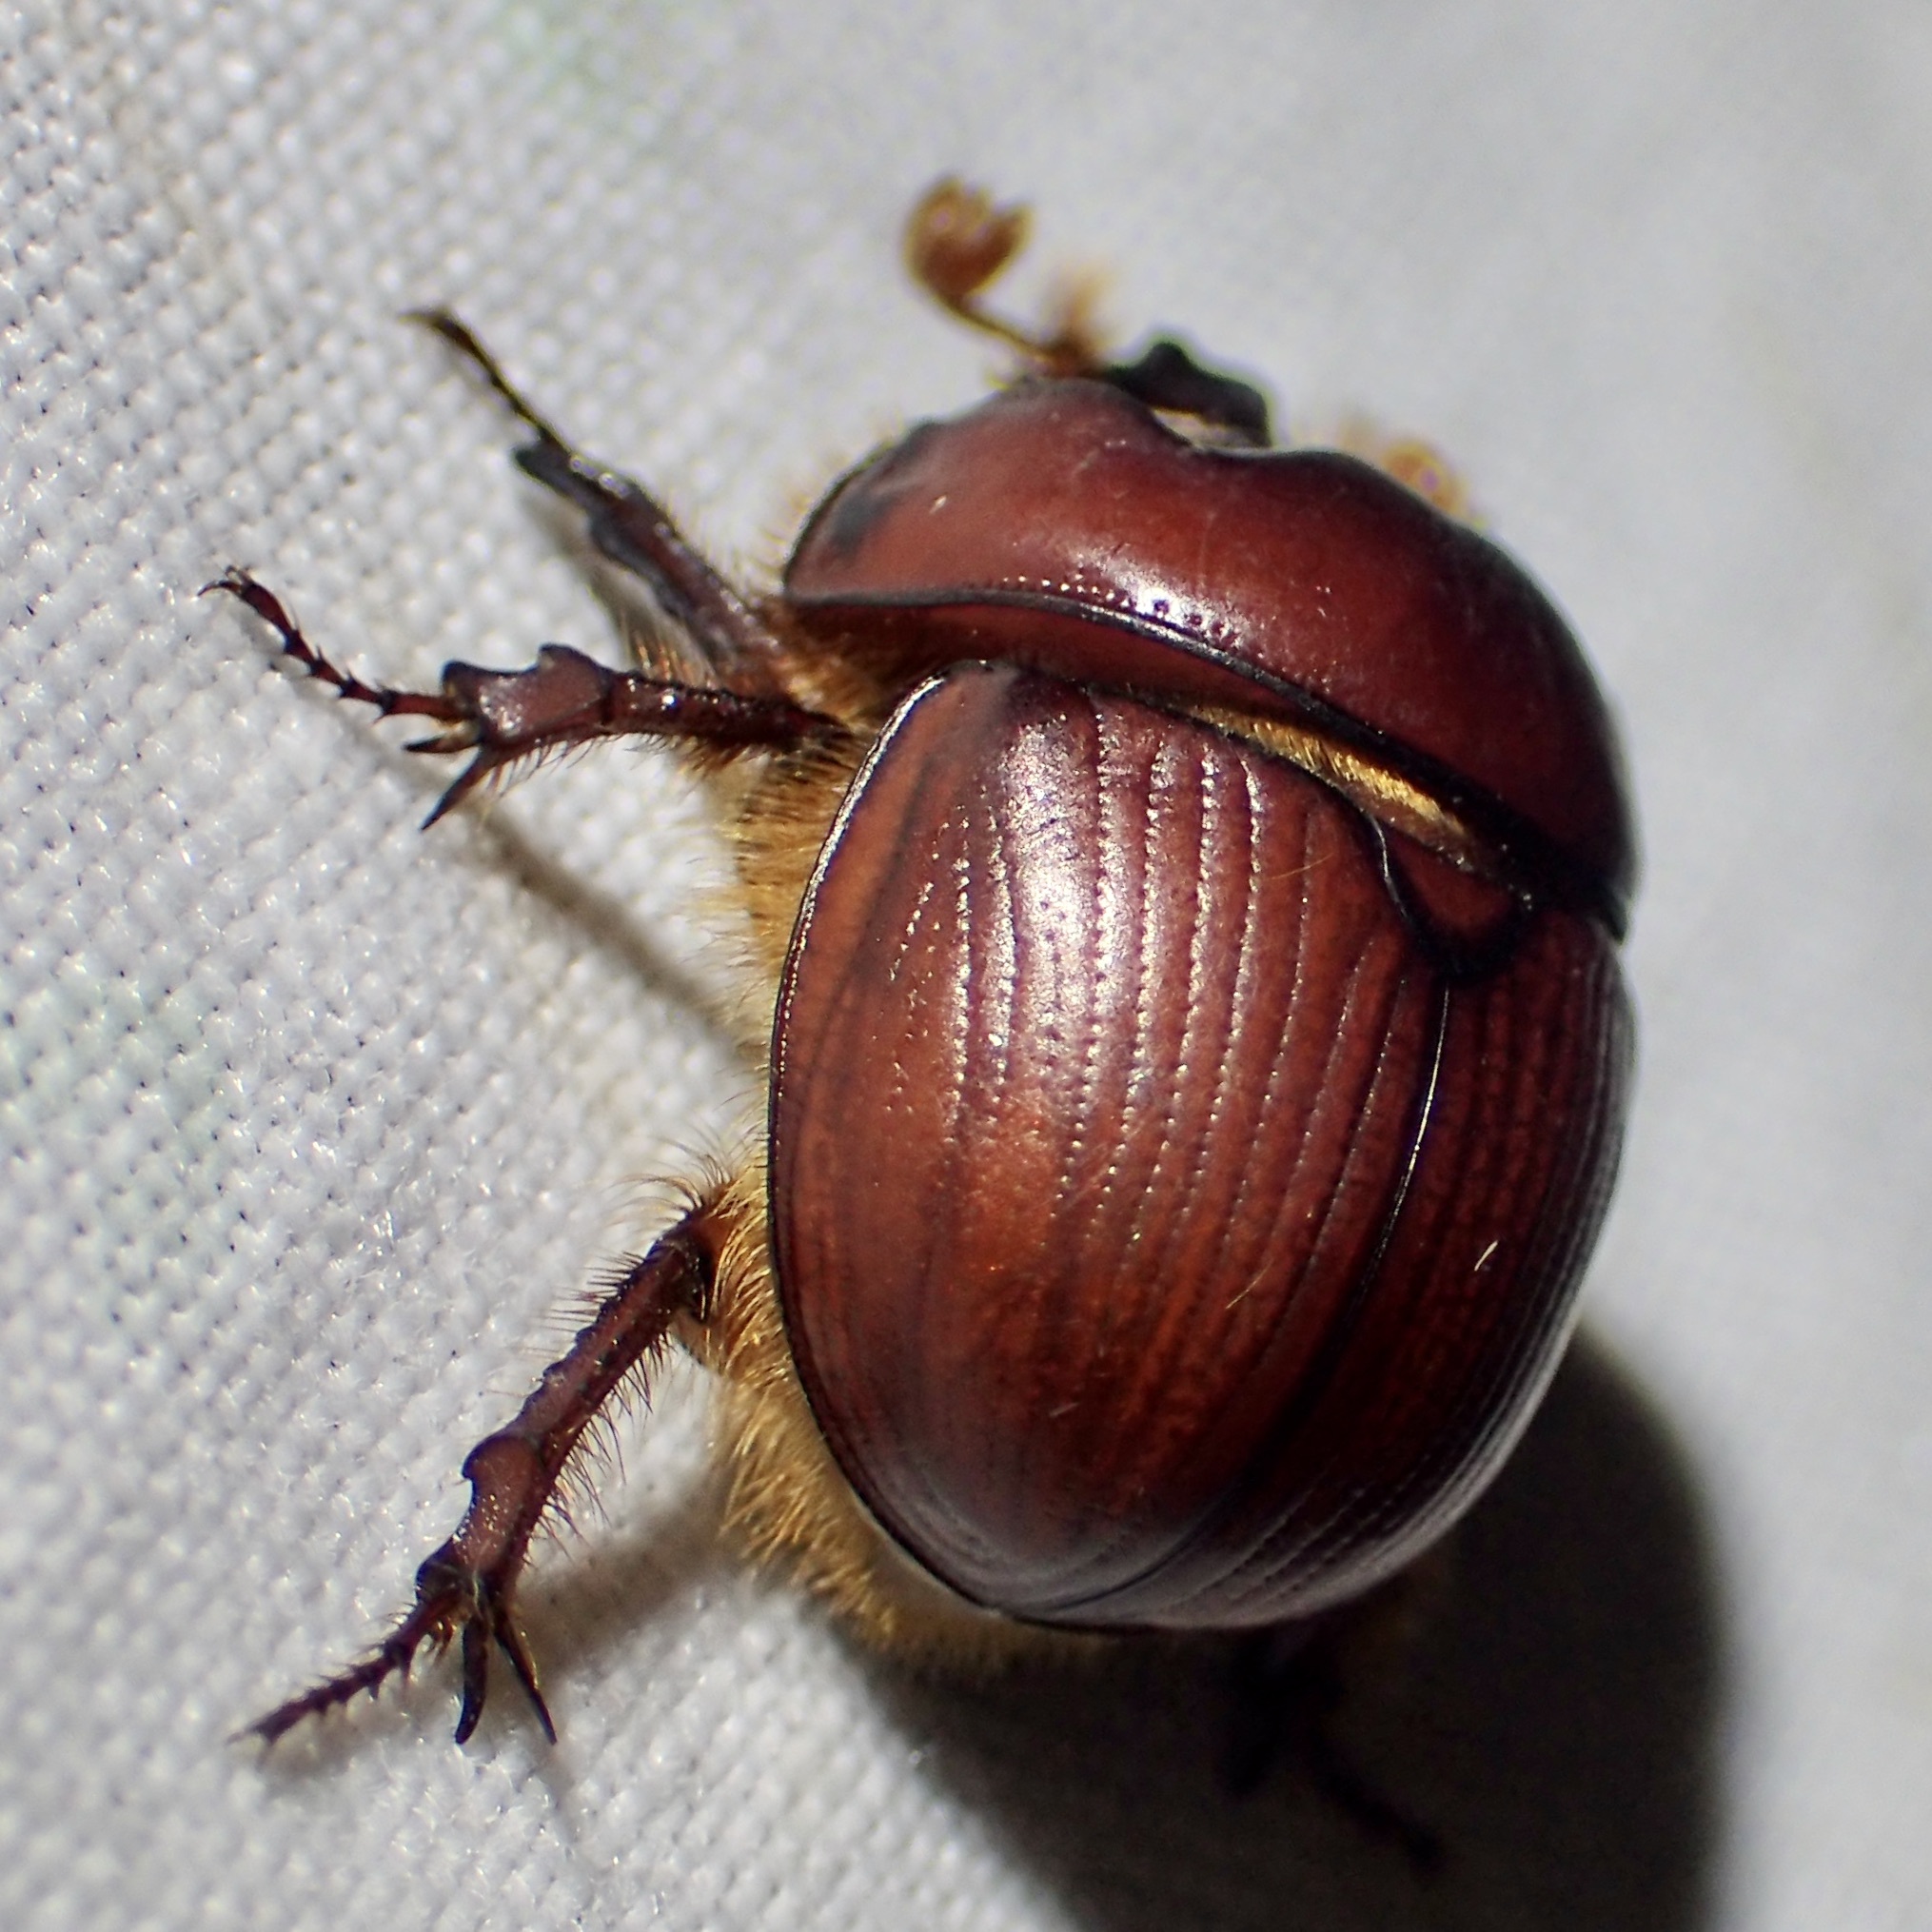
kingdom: Animalia
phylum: Arthropoda
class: Insecta
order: Coleoptera
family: Geotrupidae
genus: Bolborhombus
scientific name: Bolborhombus sallaei
